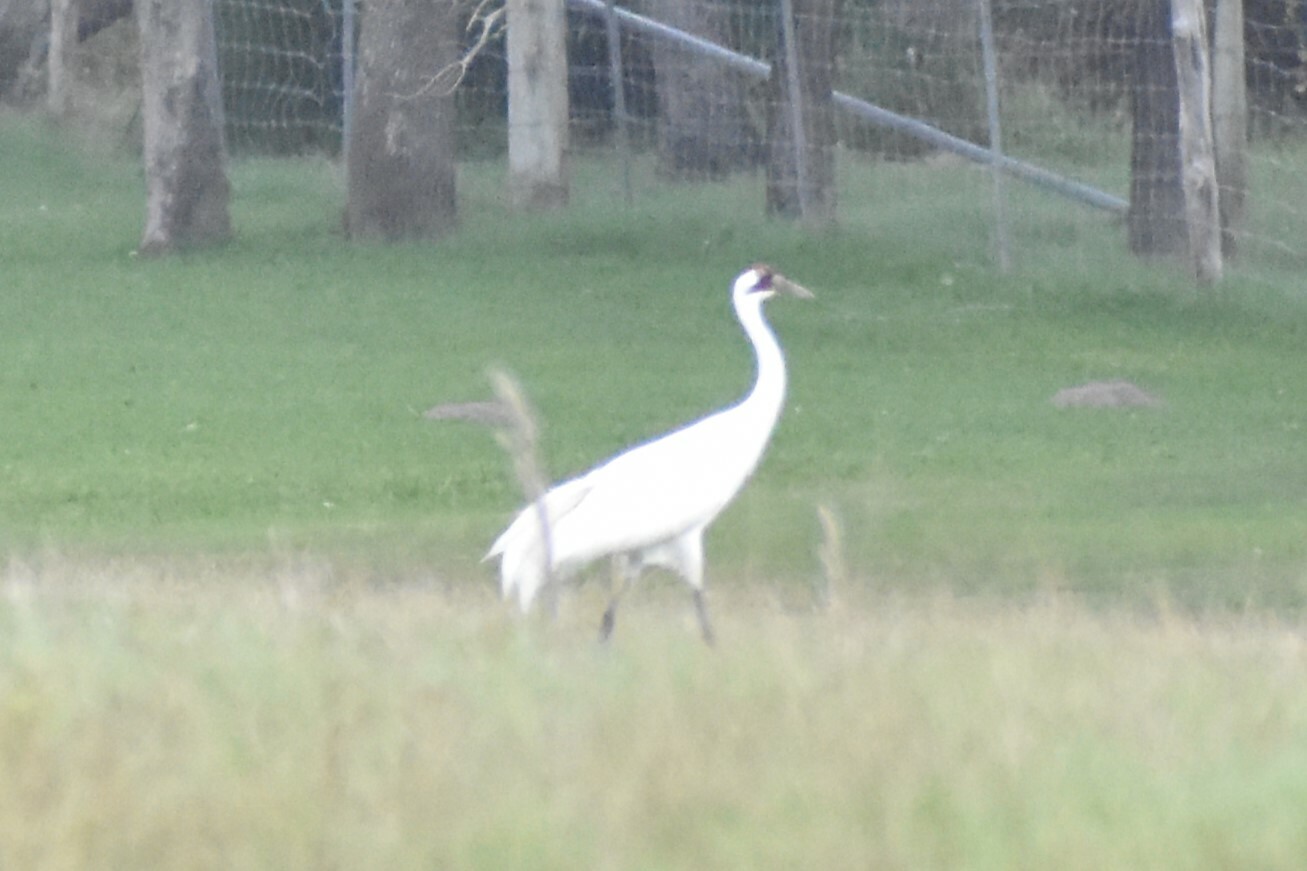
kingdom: Animalia
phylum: Chordata
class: Aves
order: Gruiformes
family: Gruidae
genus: Grus
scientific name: Grus americana
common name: Whooping crane
